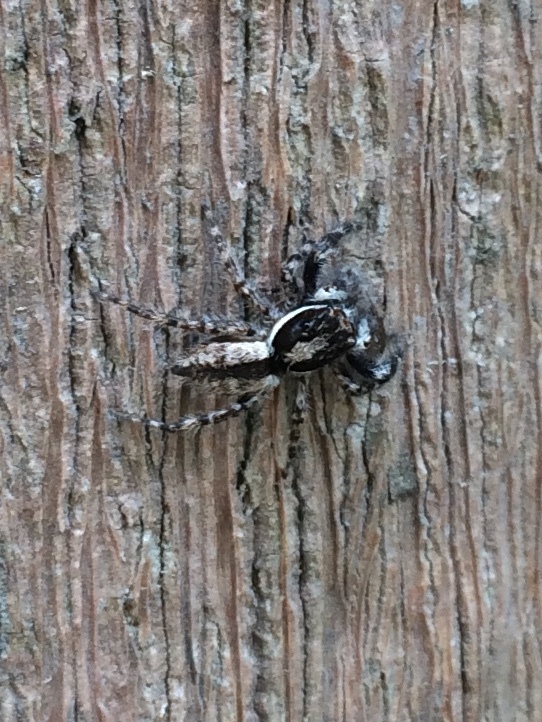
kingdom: Animalia
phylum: Arthropoda
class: Arachnida
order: Araneae
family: Salticidae
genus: Menemerus
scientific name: Menemerus bivittatus
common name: Gray wall jumper
